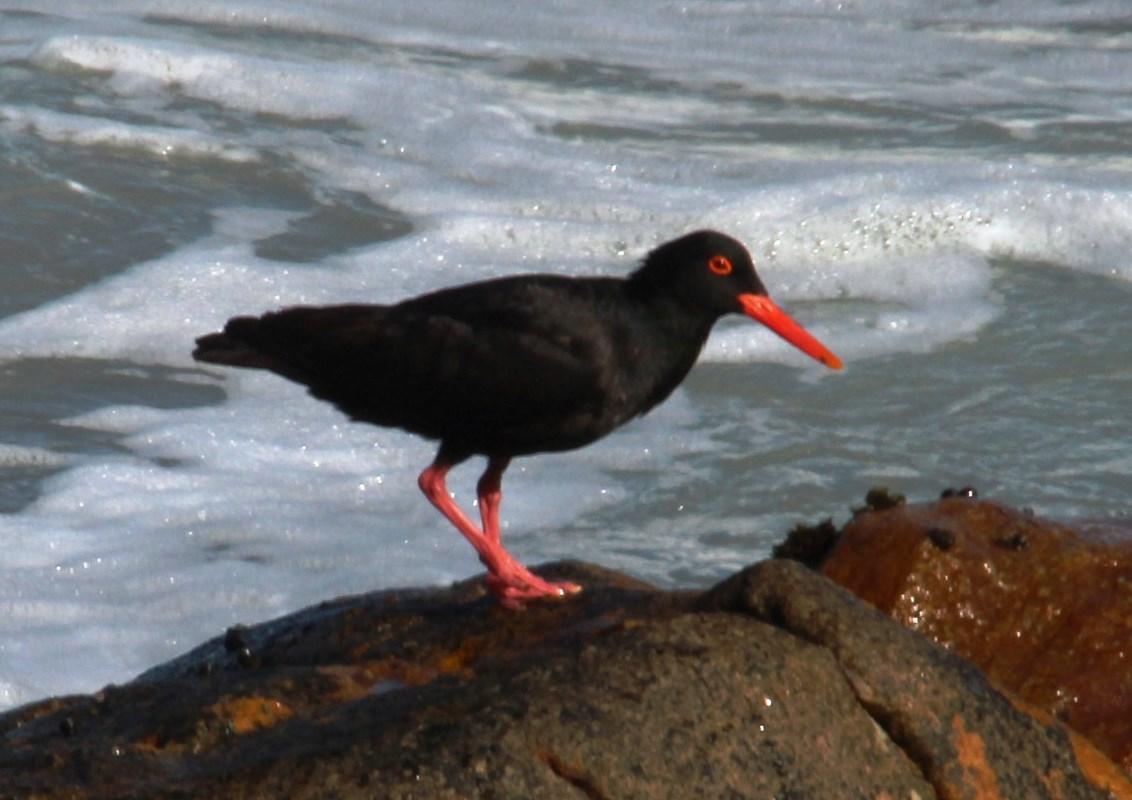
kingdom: Animalia
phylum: Chordata
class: Aves
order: Charadriiformes
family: Haematopodidae
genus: Haematopus
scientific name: Haematopus moquini
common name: African oystercatcher
